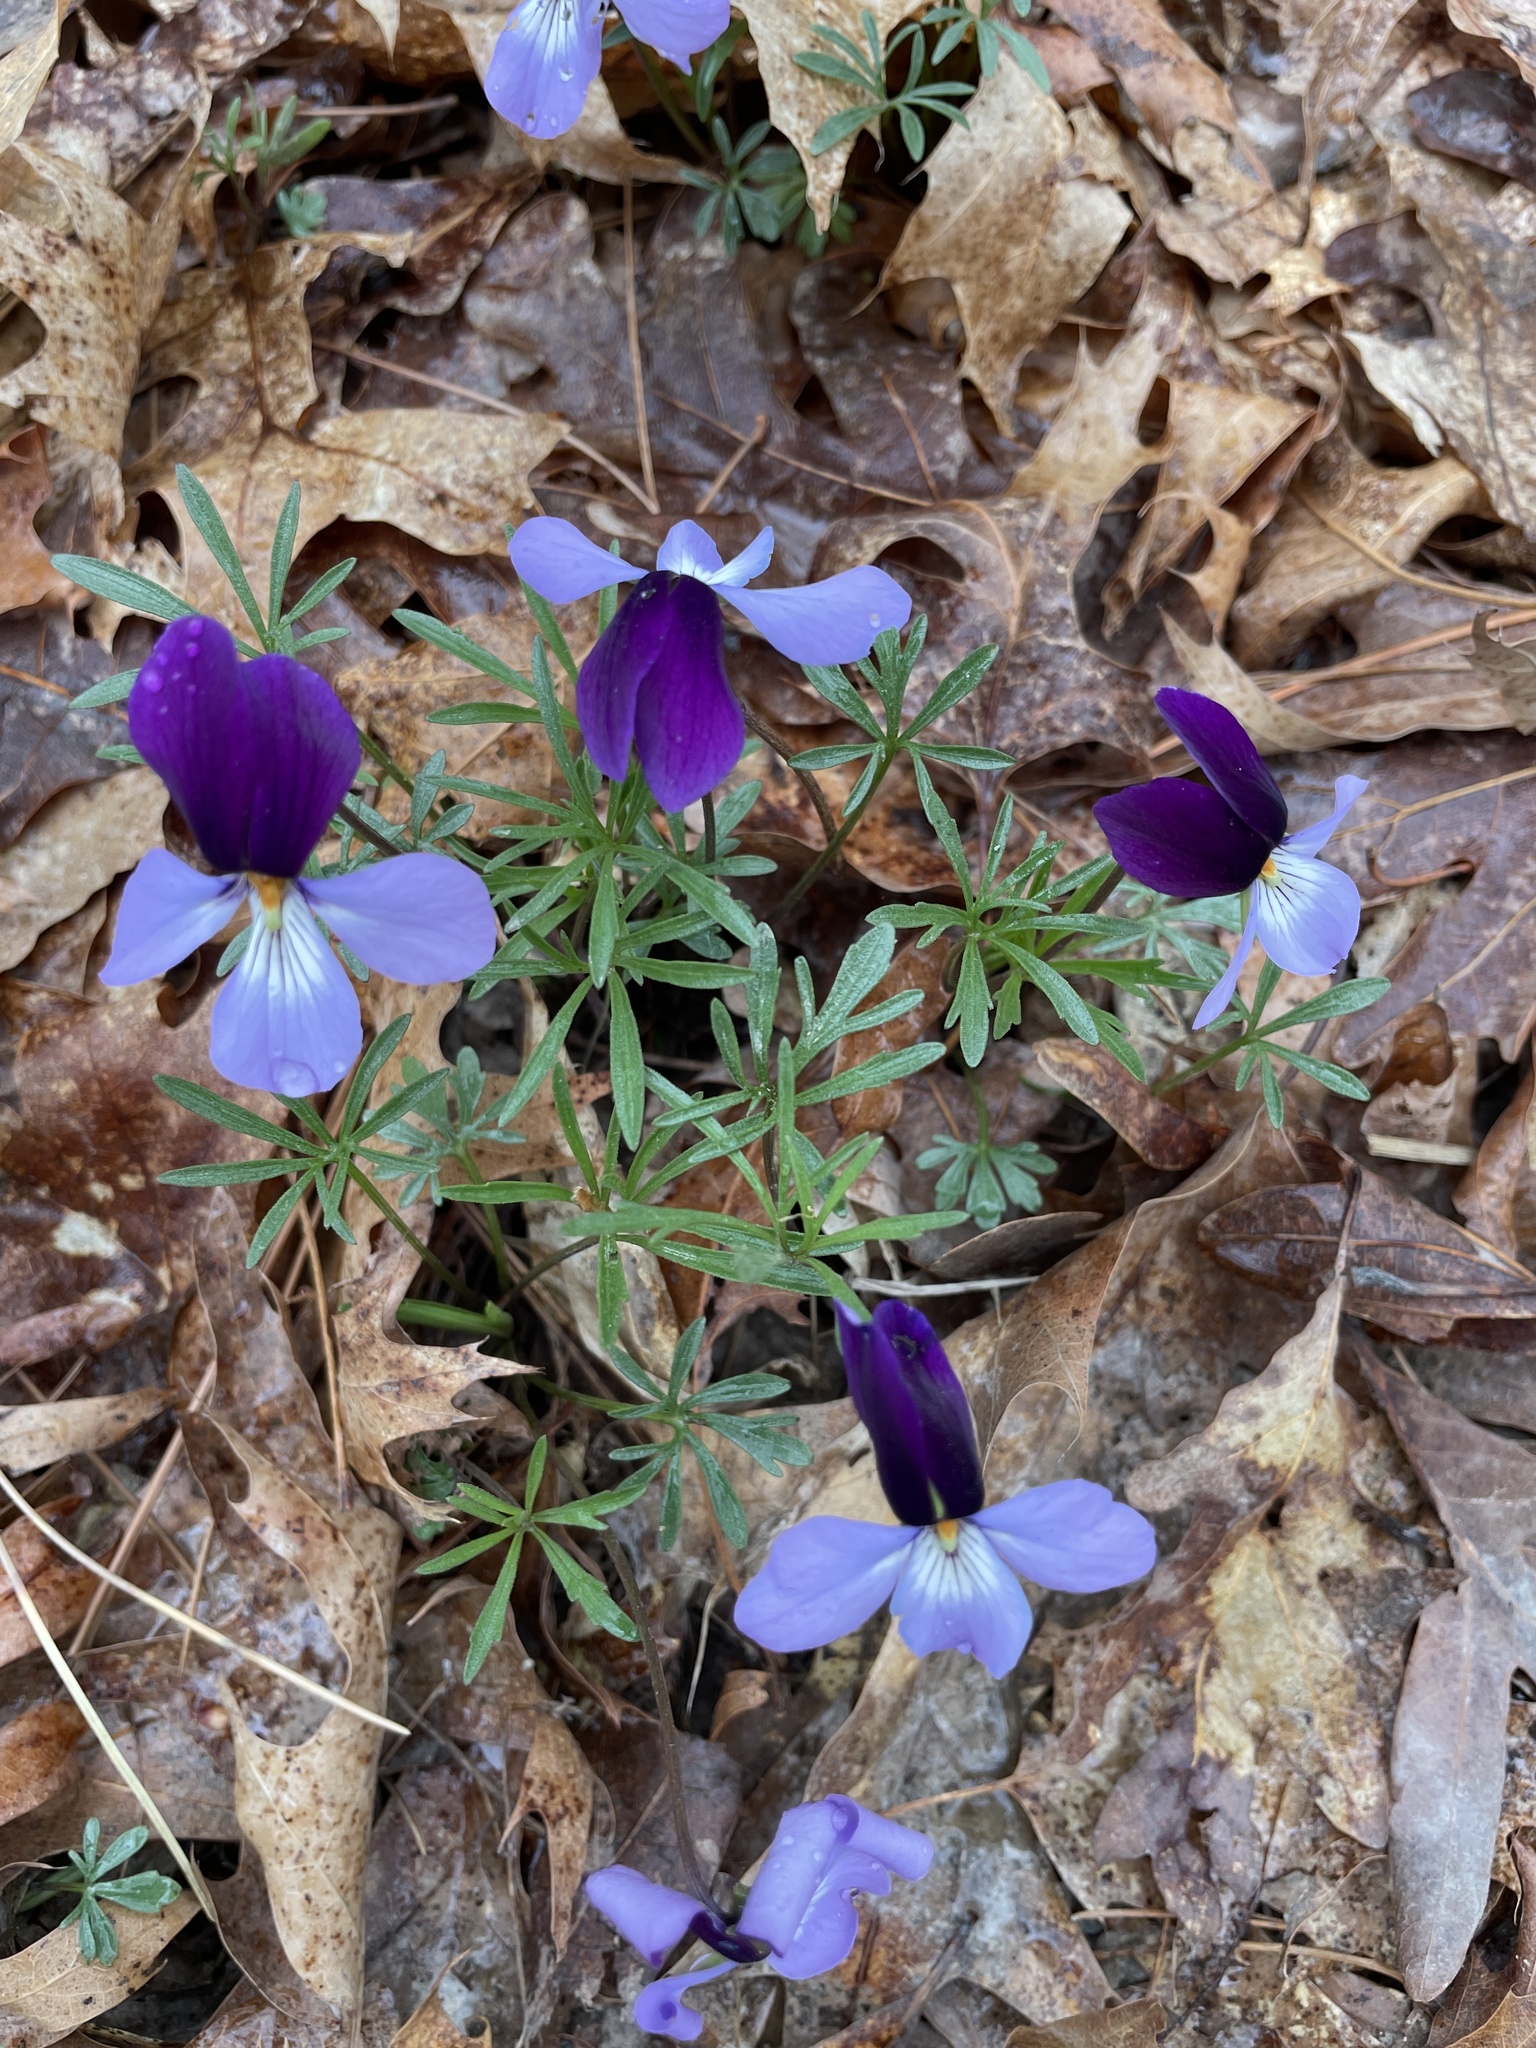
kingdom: Plantae
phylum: Tracheophyta
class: Magnoliopsida
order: Malpighiales
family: Violaceae
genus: Viola
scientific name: Viola pedata
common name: Pansy violet
